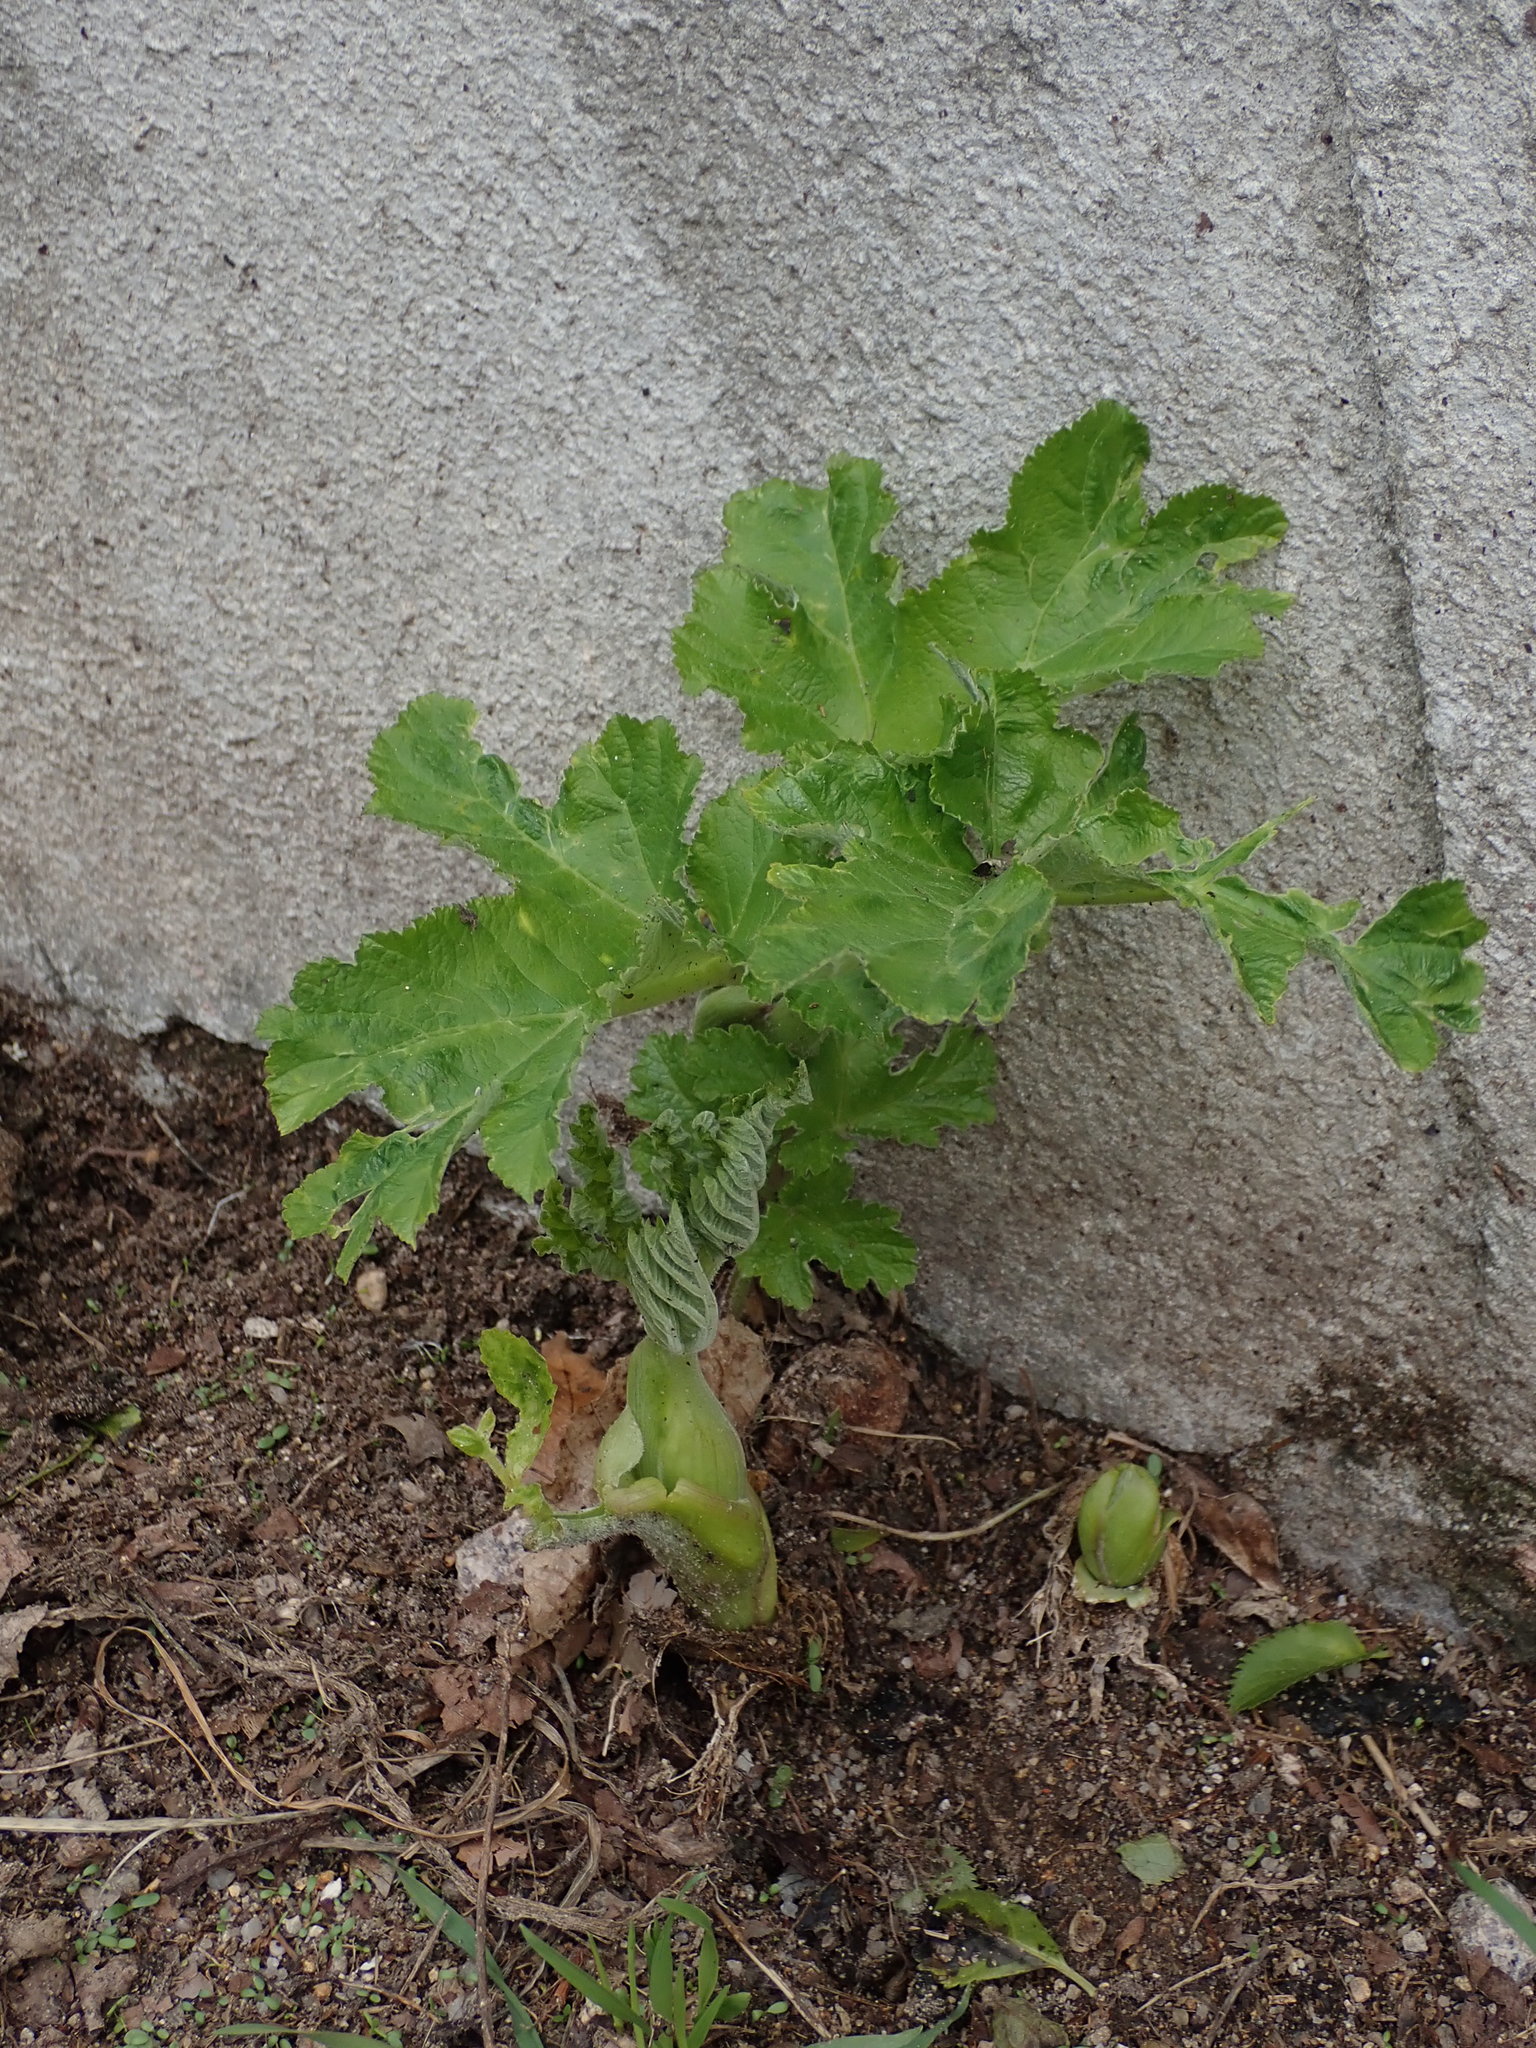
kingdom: Plantae
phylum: Tracheophyta
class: Magnoliopsida
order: Apiales
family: Apiaceae
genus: Heracleum
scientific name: Heracleum sphondylium
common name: Hogweed
